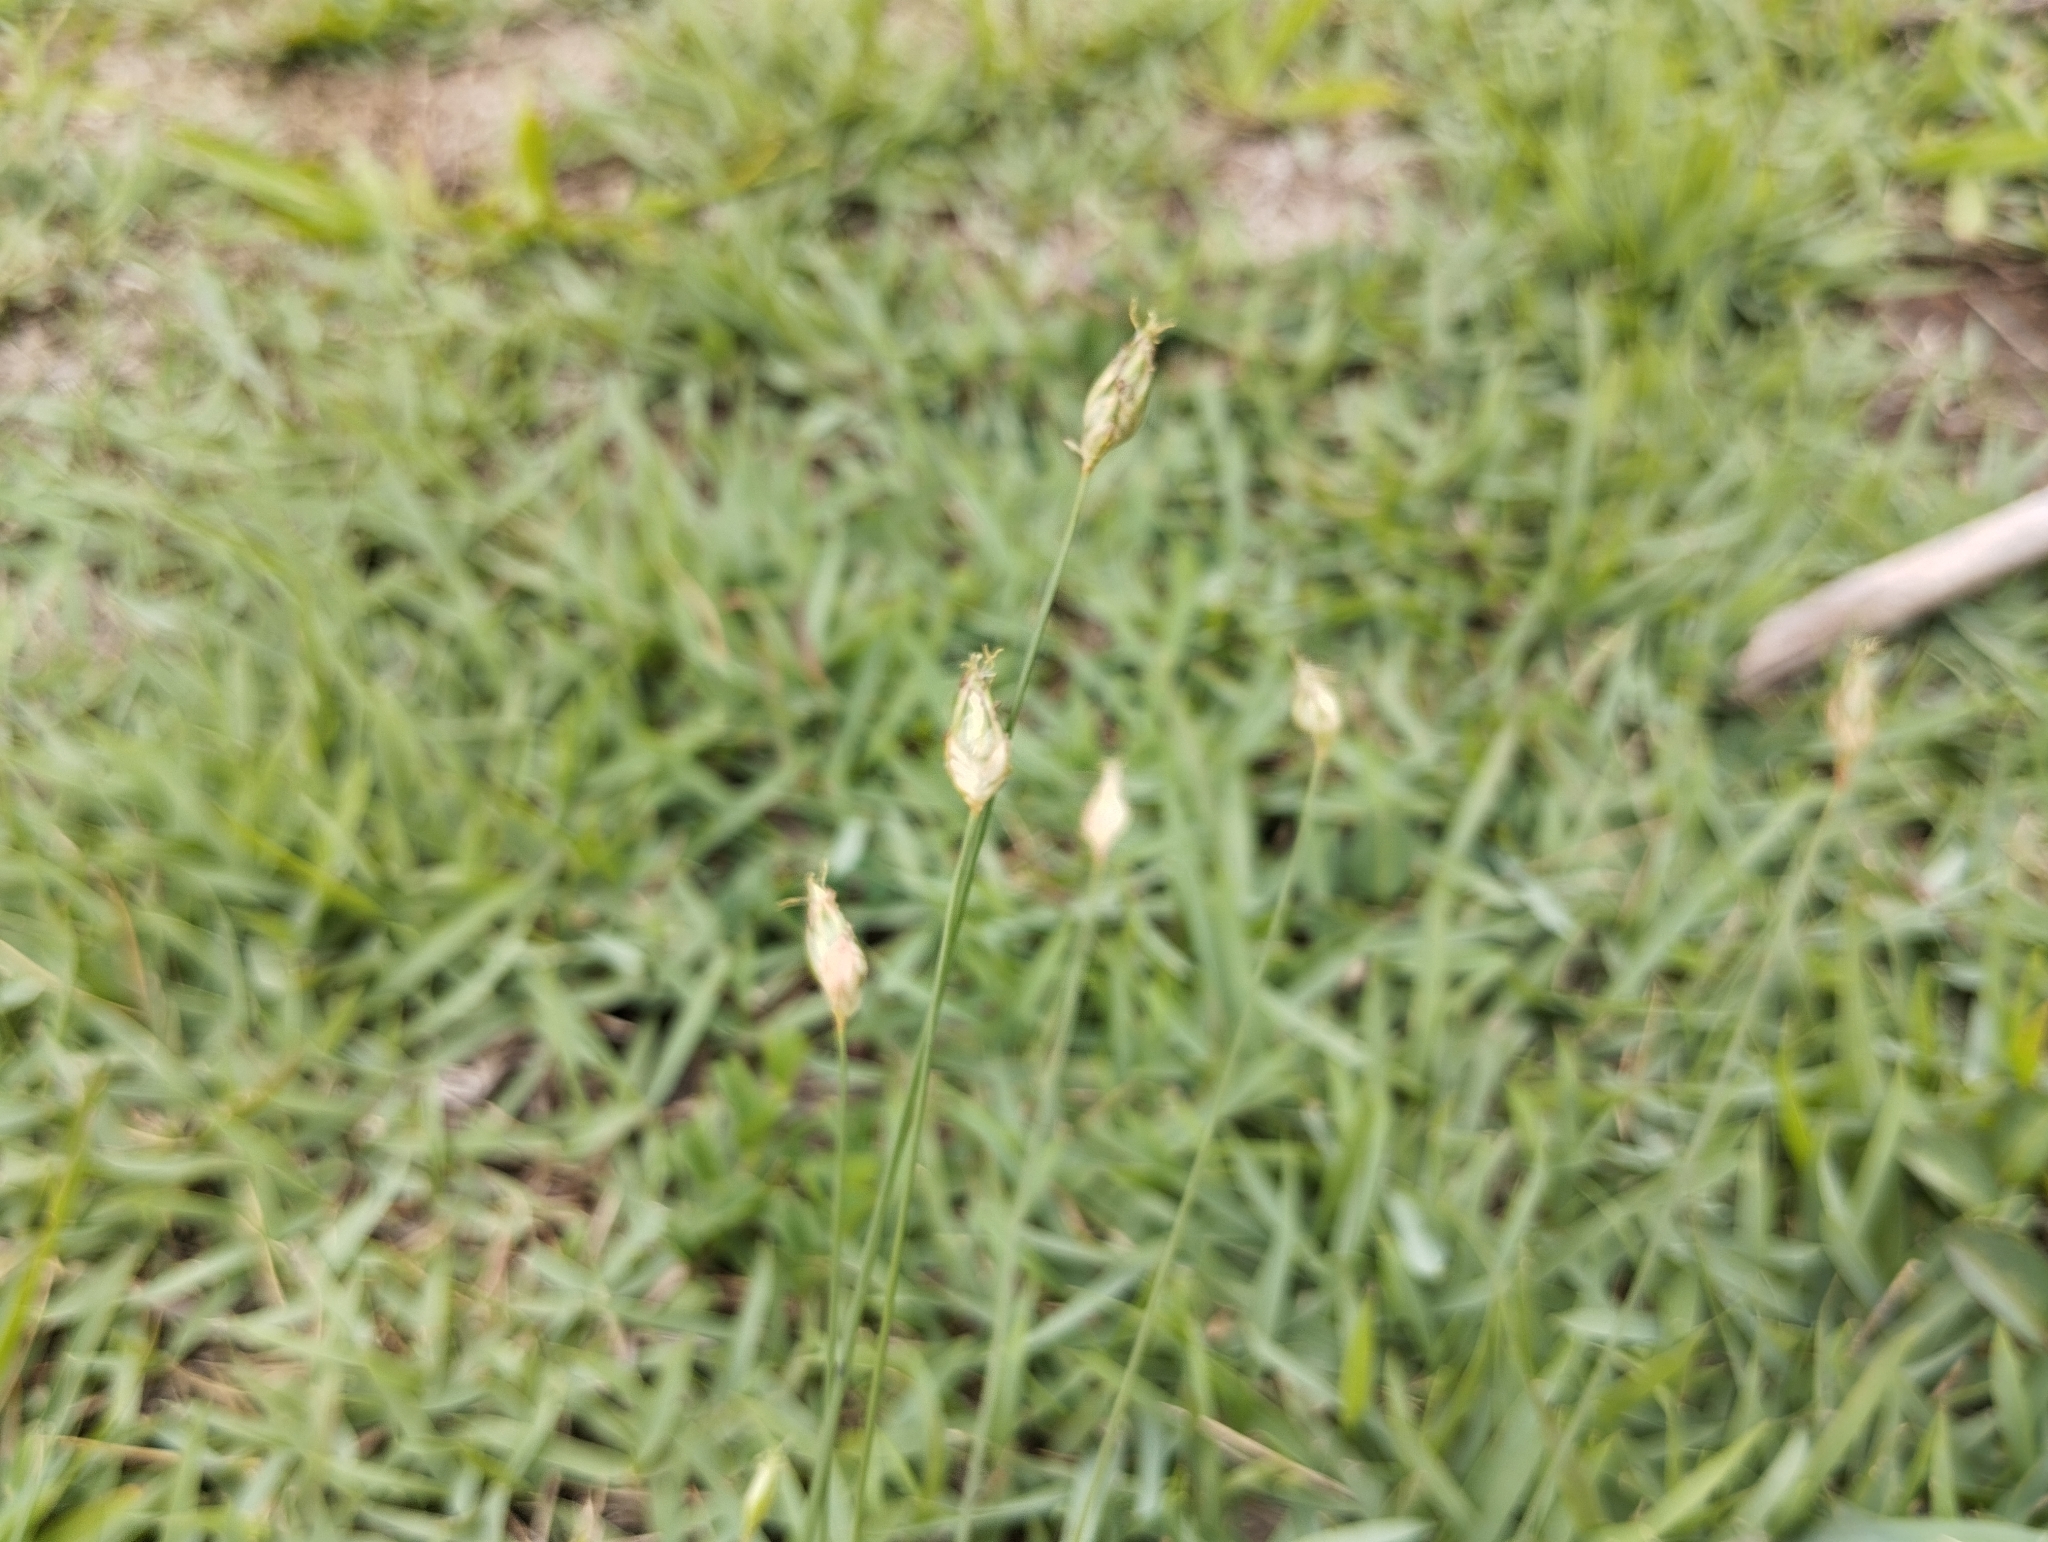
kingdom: Plantae
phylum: Tracheophyta
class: Liliopsida
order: Poales
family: Cyperaceae
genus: Abildgaardia
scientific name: Abildgaardia ovata
